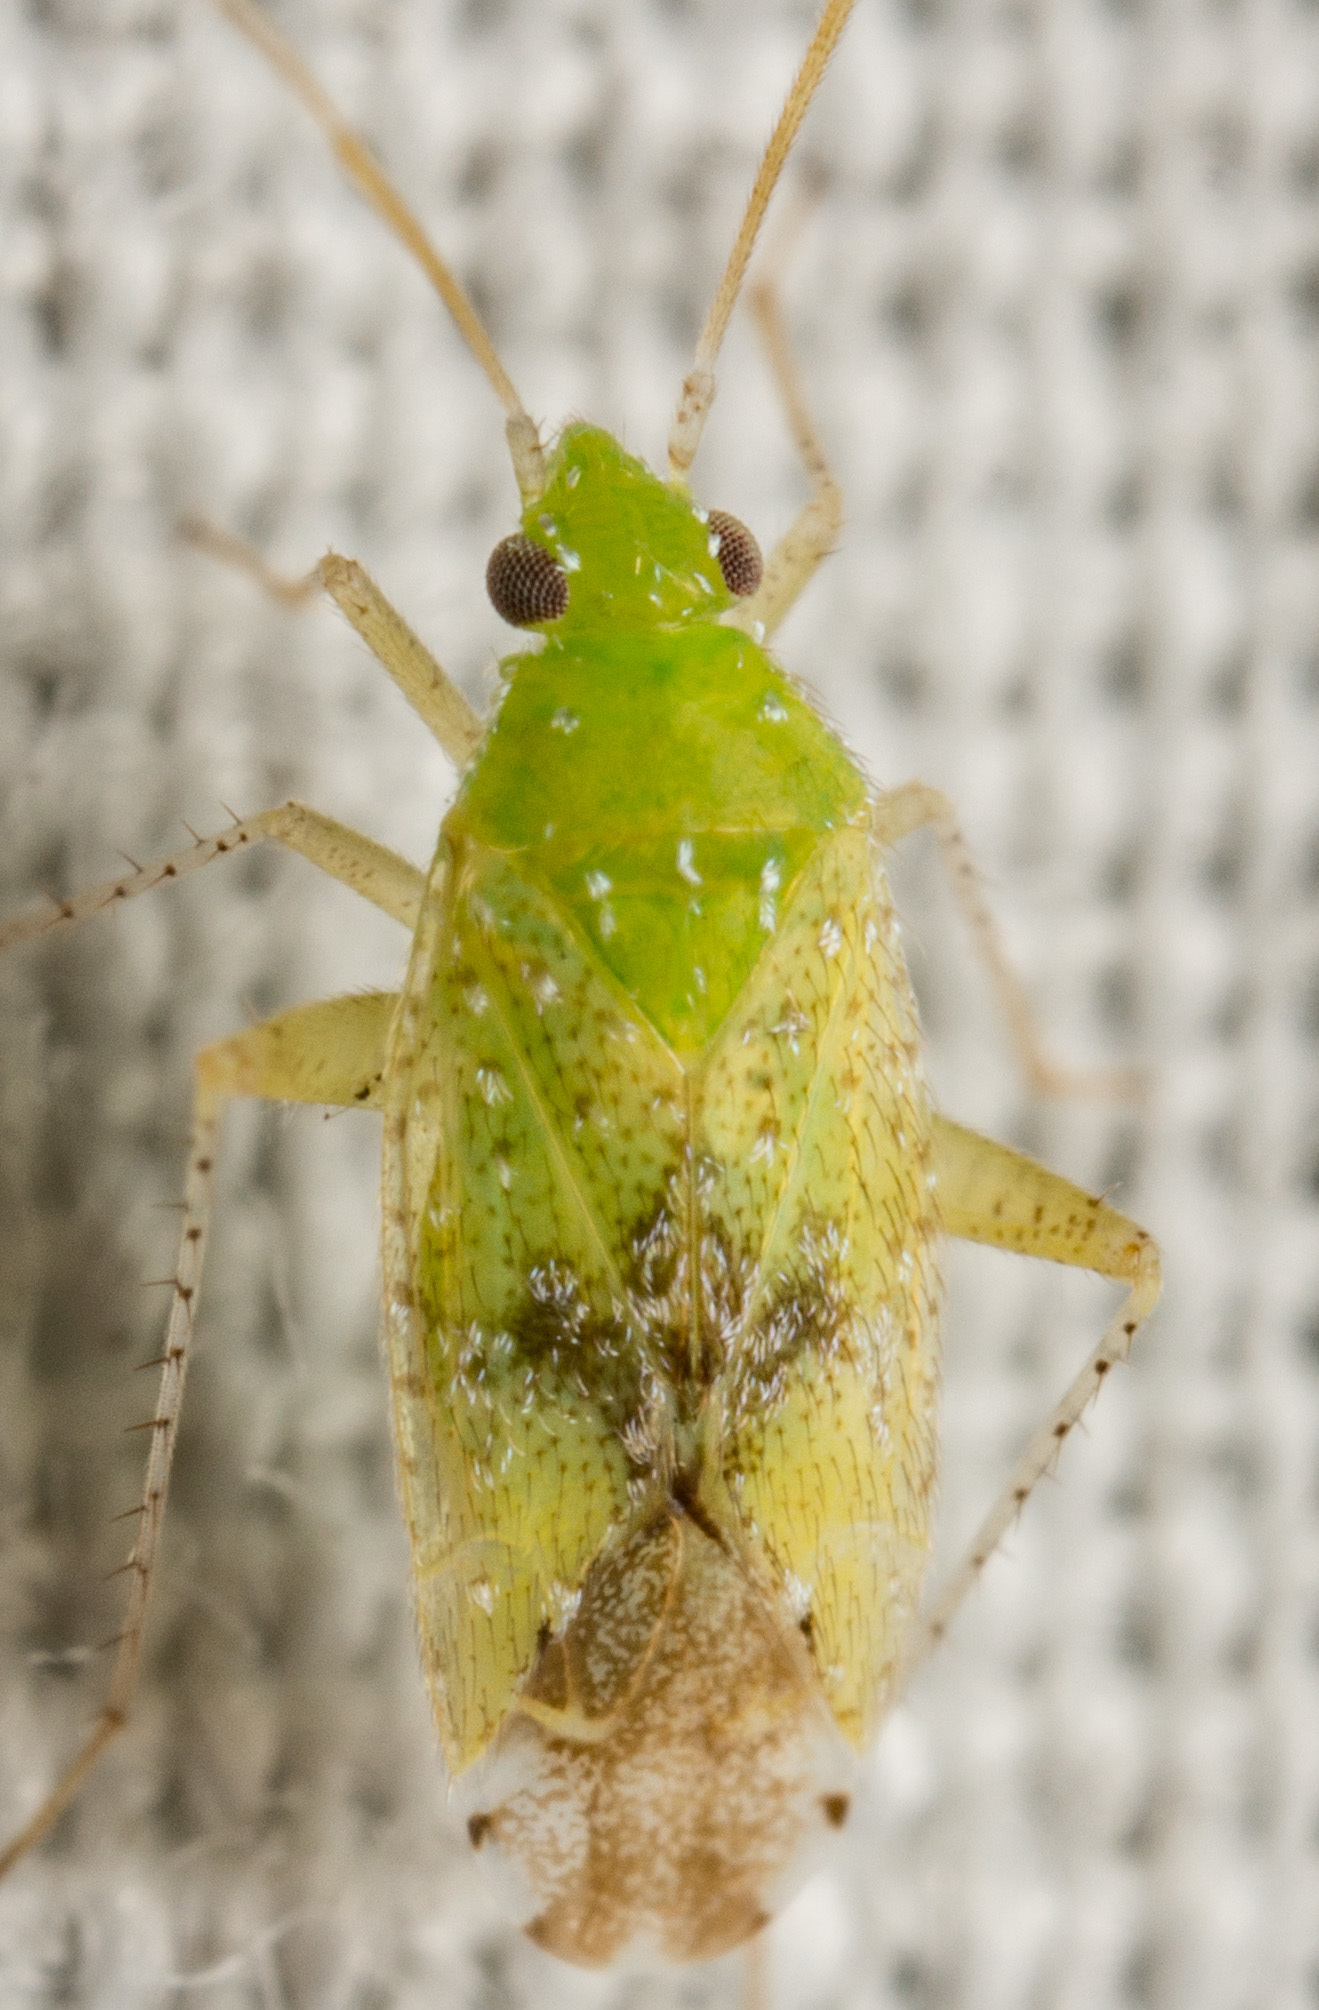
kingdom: Animalia
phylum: Arthropoda
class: Insecta
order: Hemiptera
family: Miridae
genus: Keltonia
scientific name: Keltonia tuckeri
